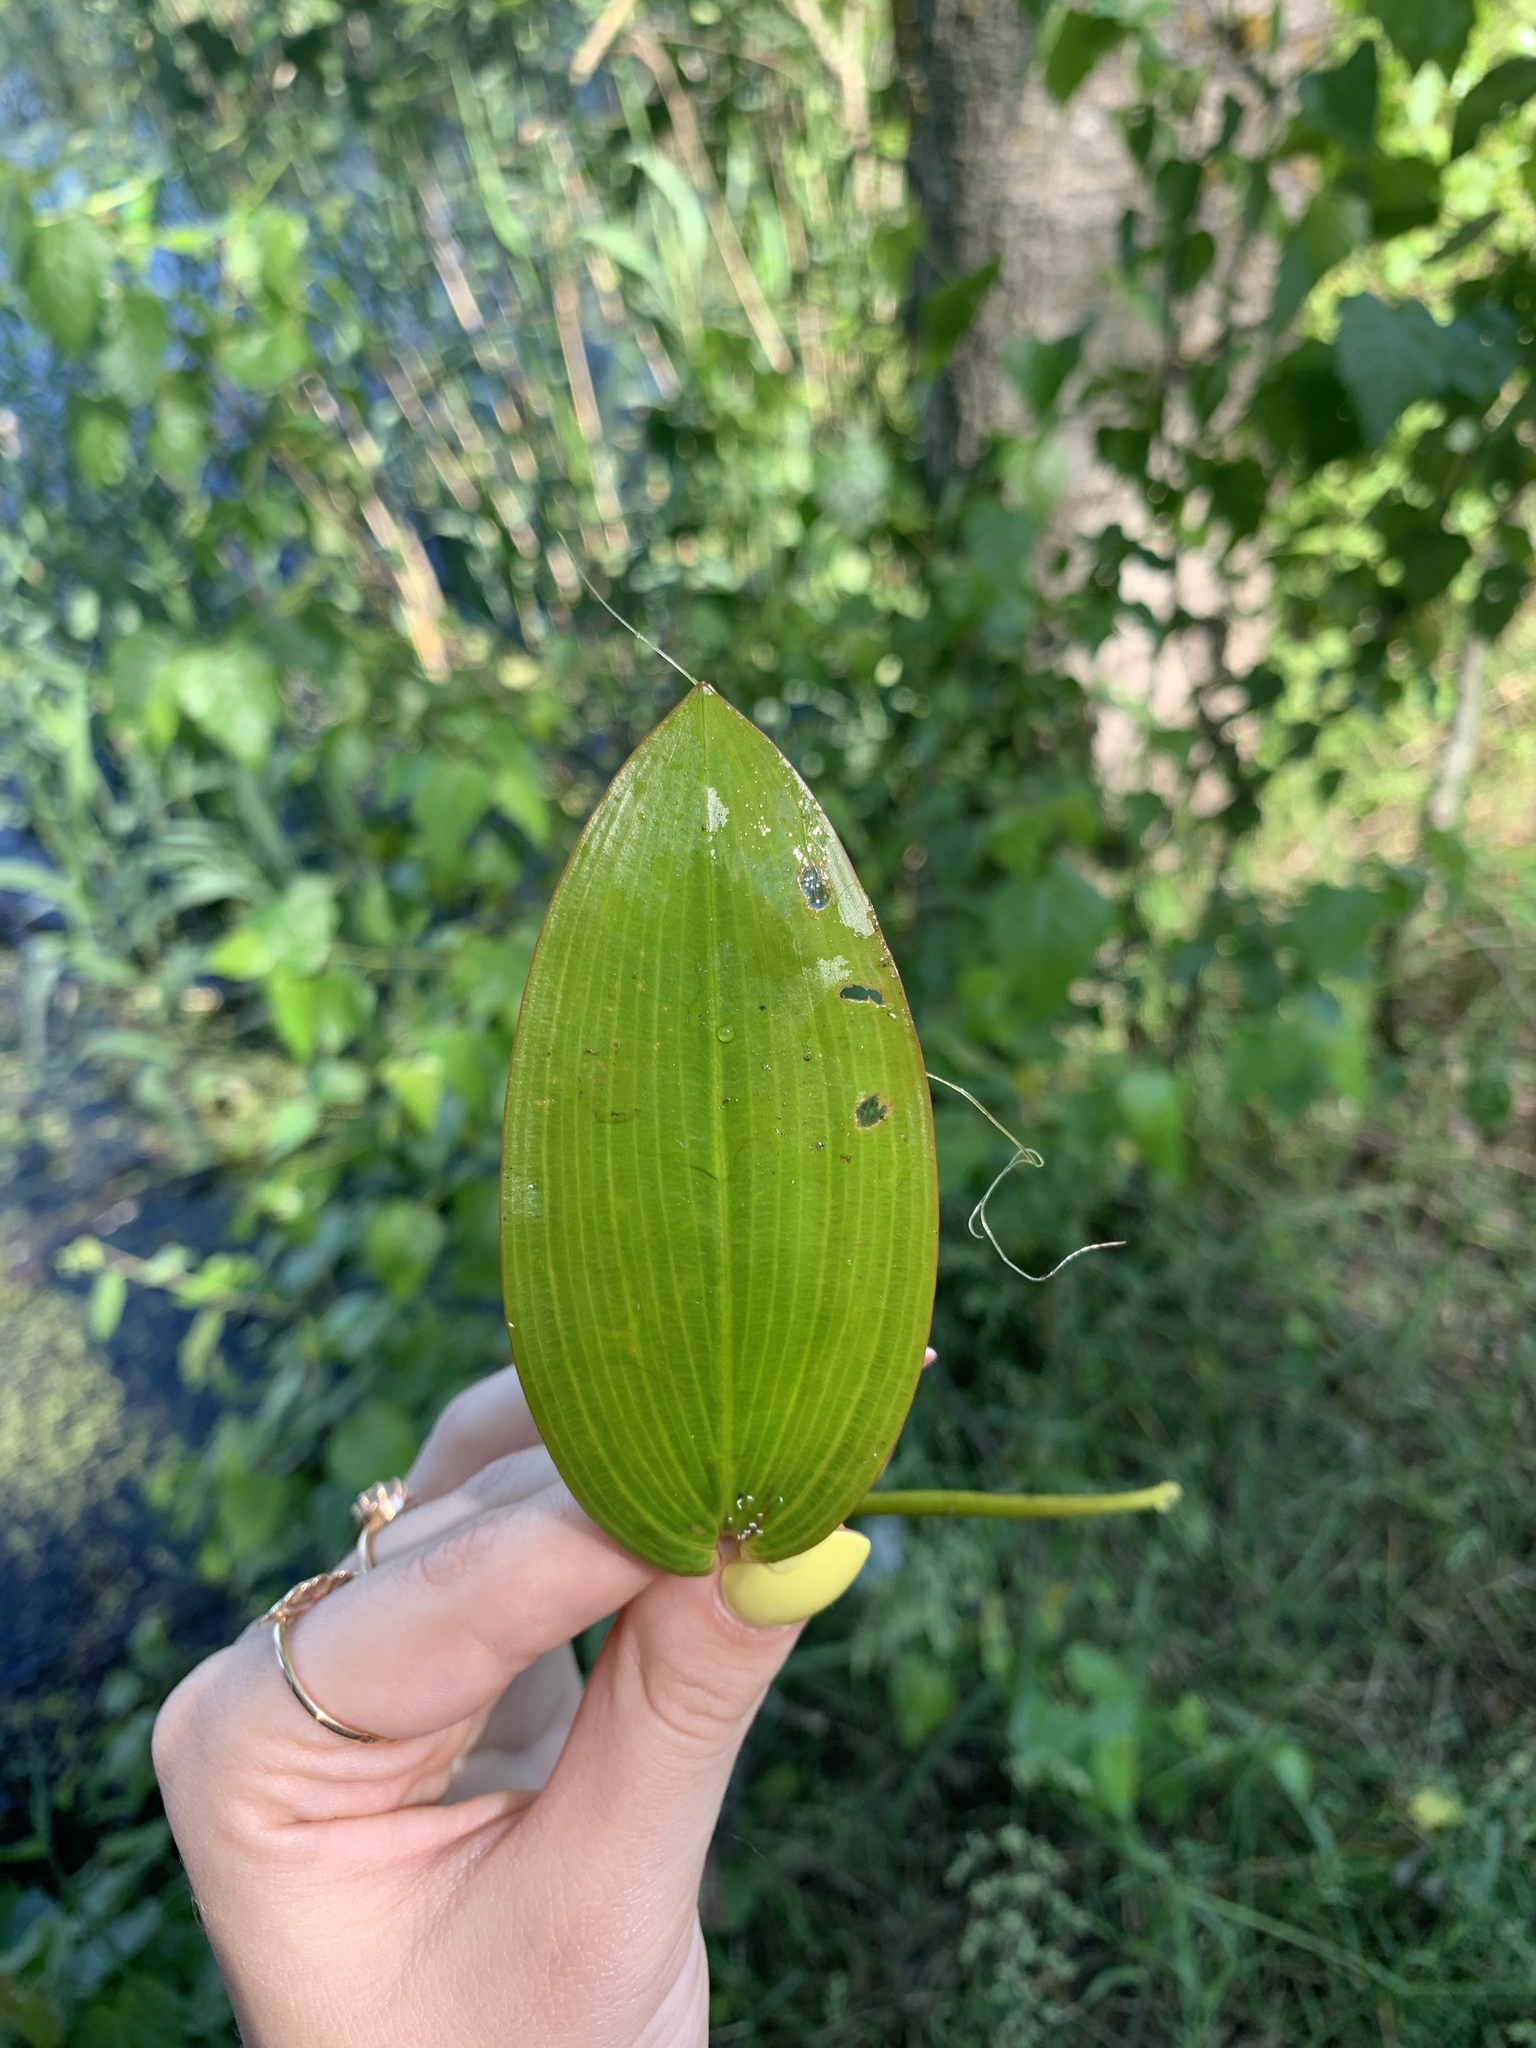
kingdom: Plantae
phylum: Tracheophyta
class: Liliopsida
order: Alismatales
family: Potamogetonaceae
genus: Potamogeton
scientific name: Potamogeton natans
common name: Broad-leaved pondweed
